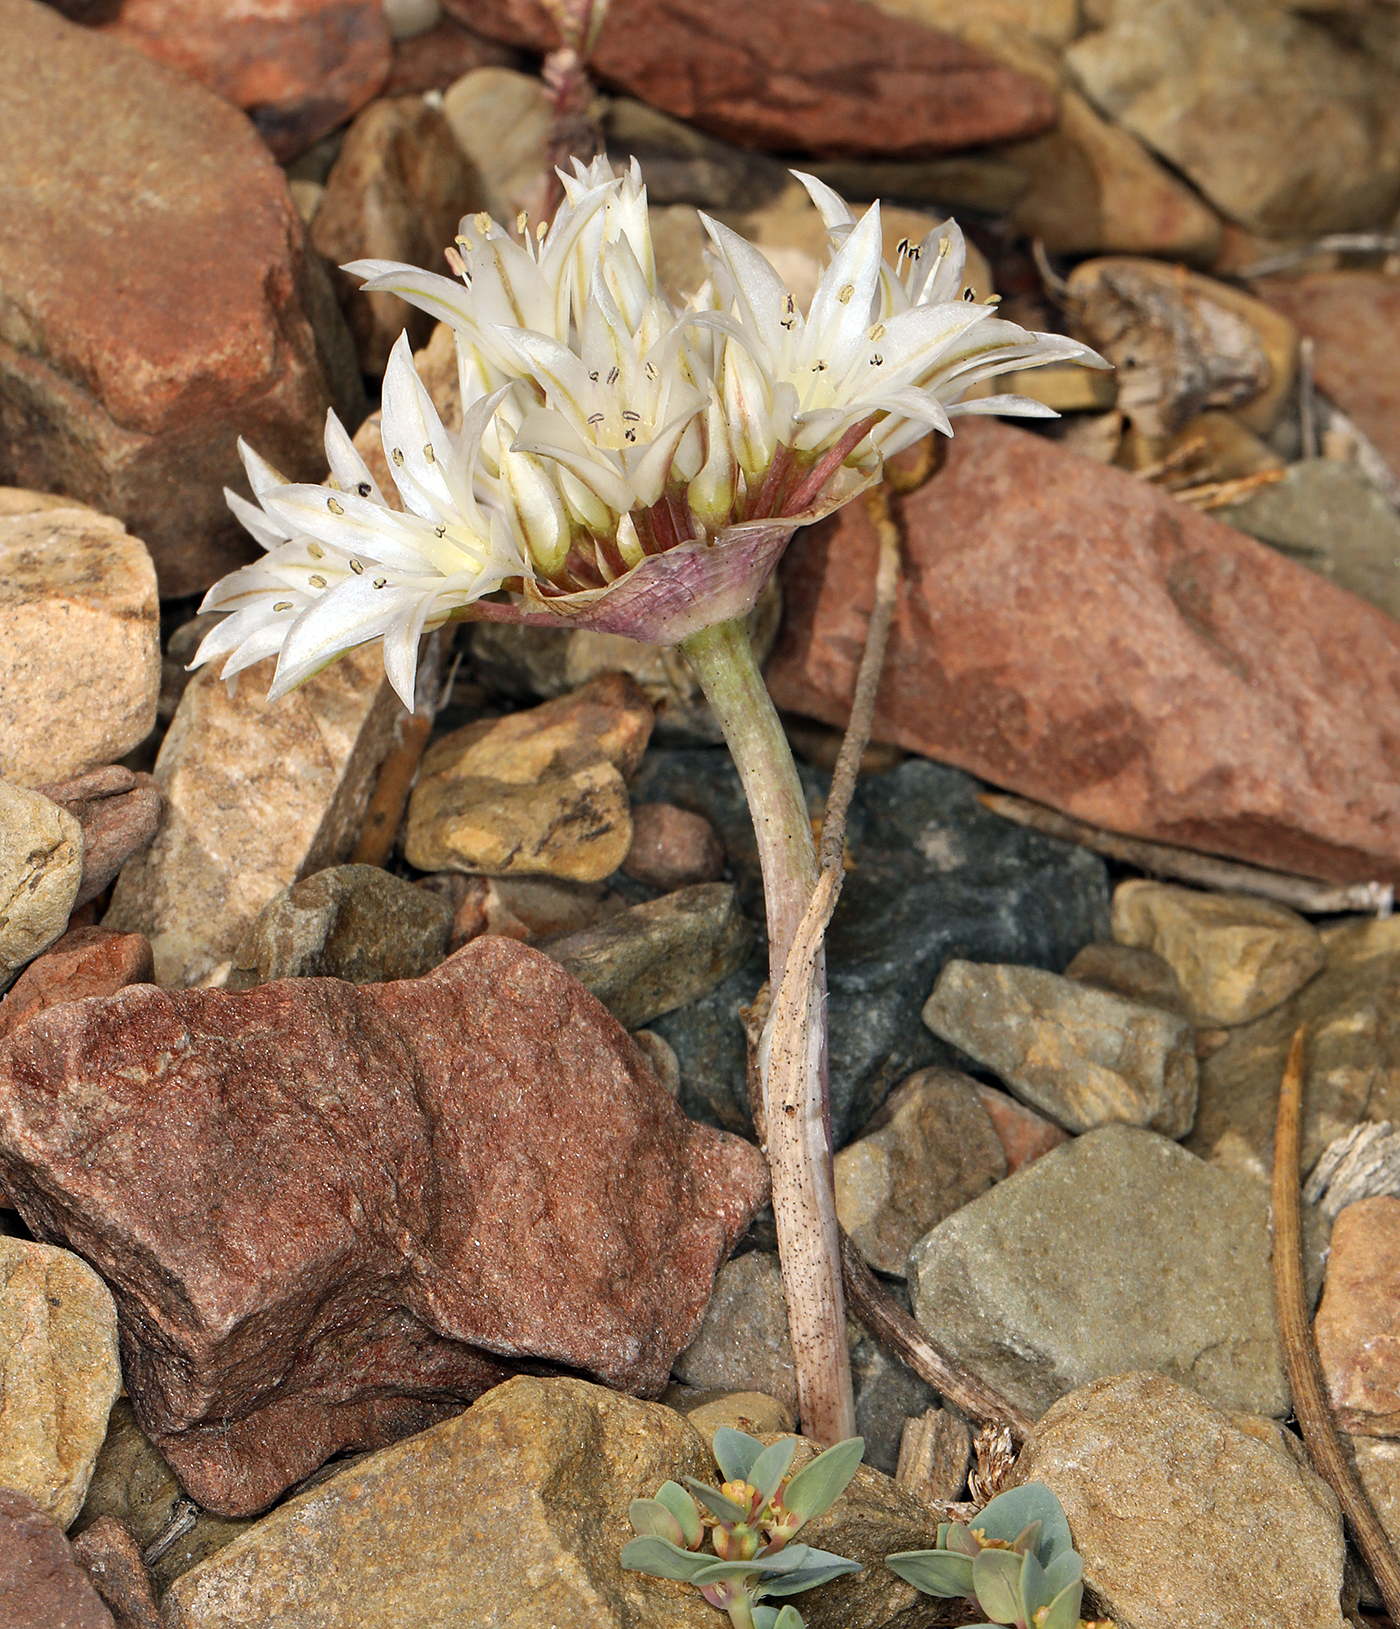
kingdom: Plantae
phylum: Tracheophyta
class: Liliopsida
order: Asparagales
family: Amaryllidaceae
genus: Allium
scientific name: Allium atrorubens
